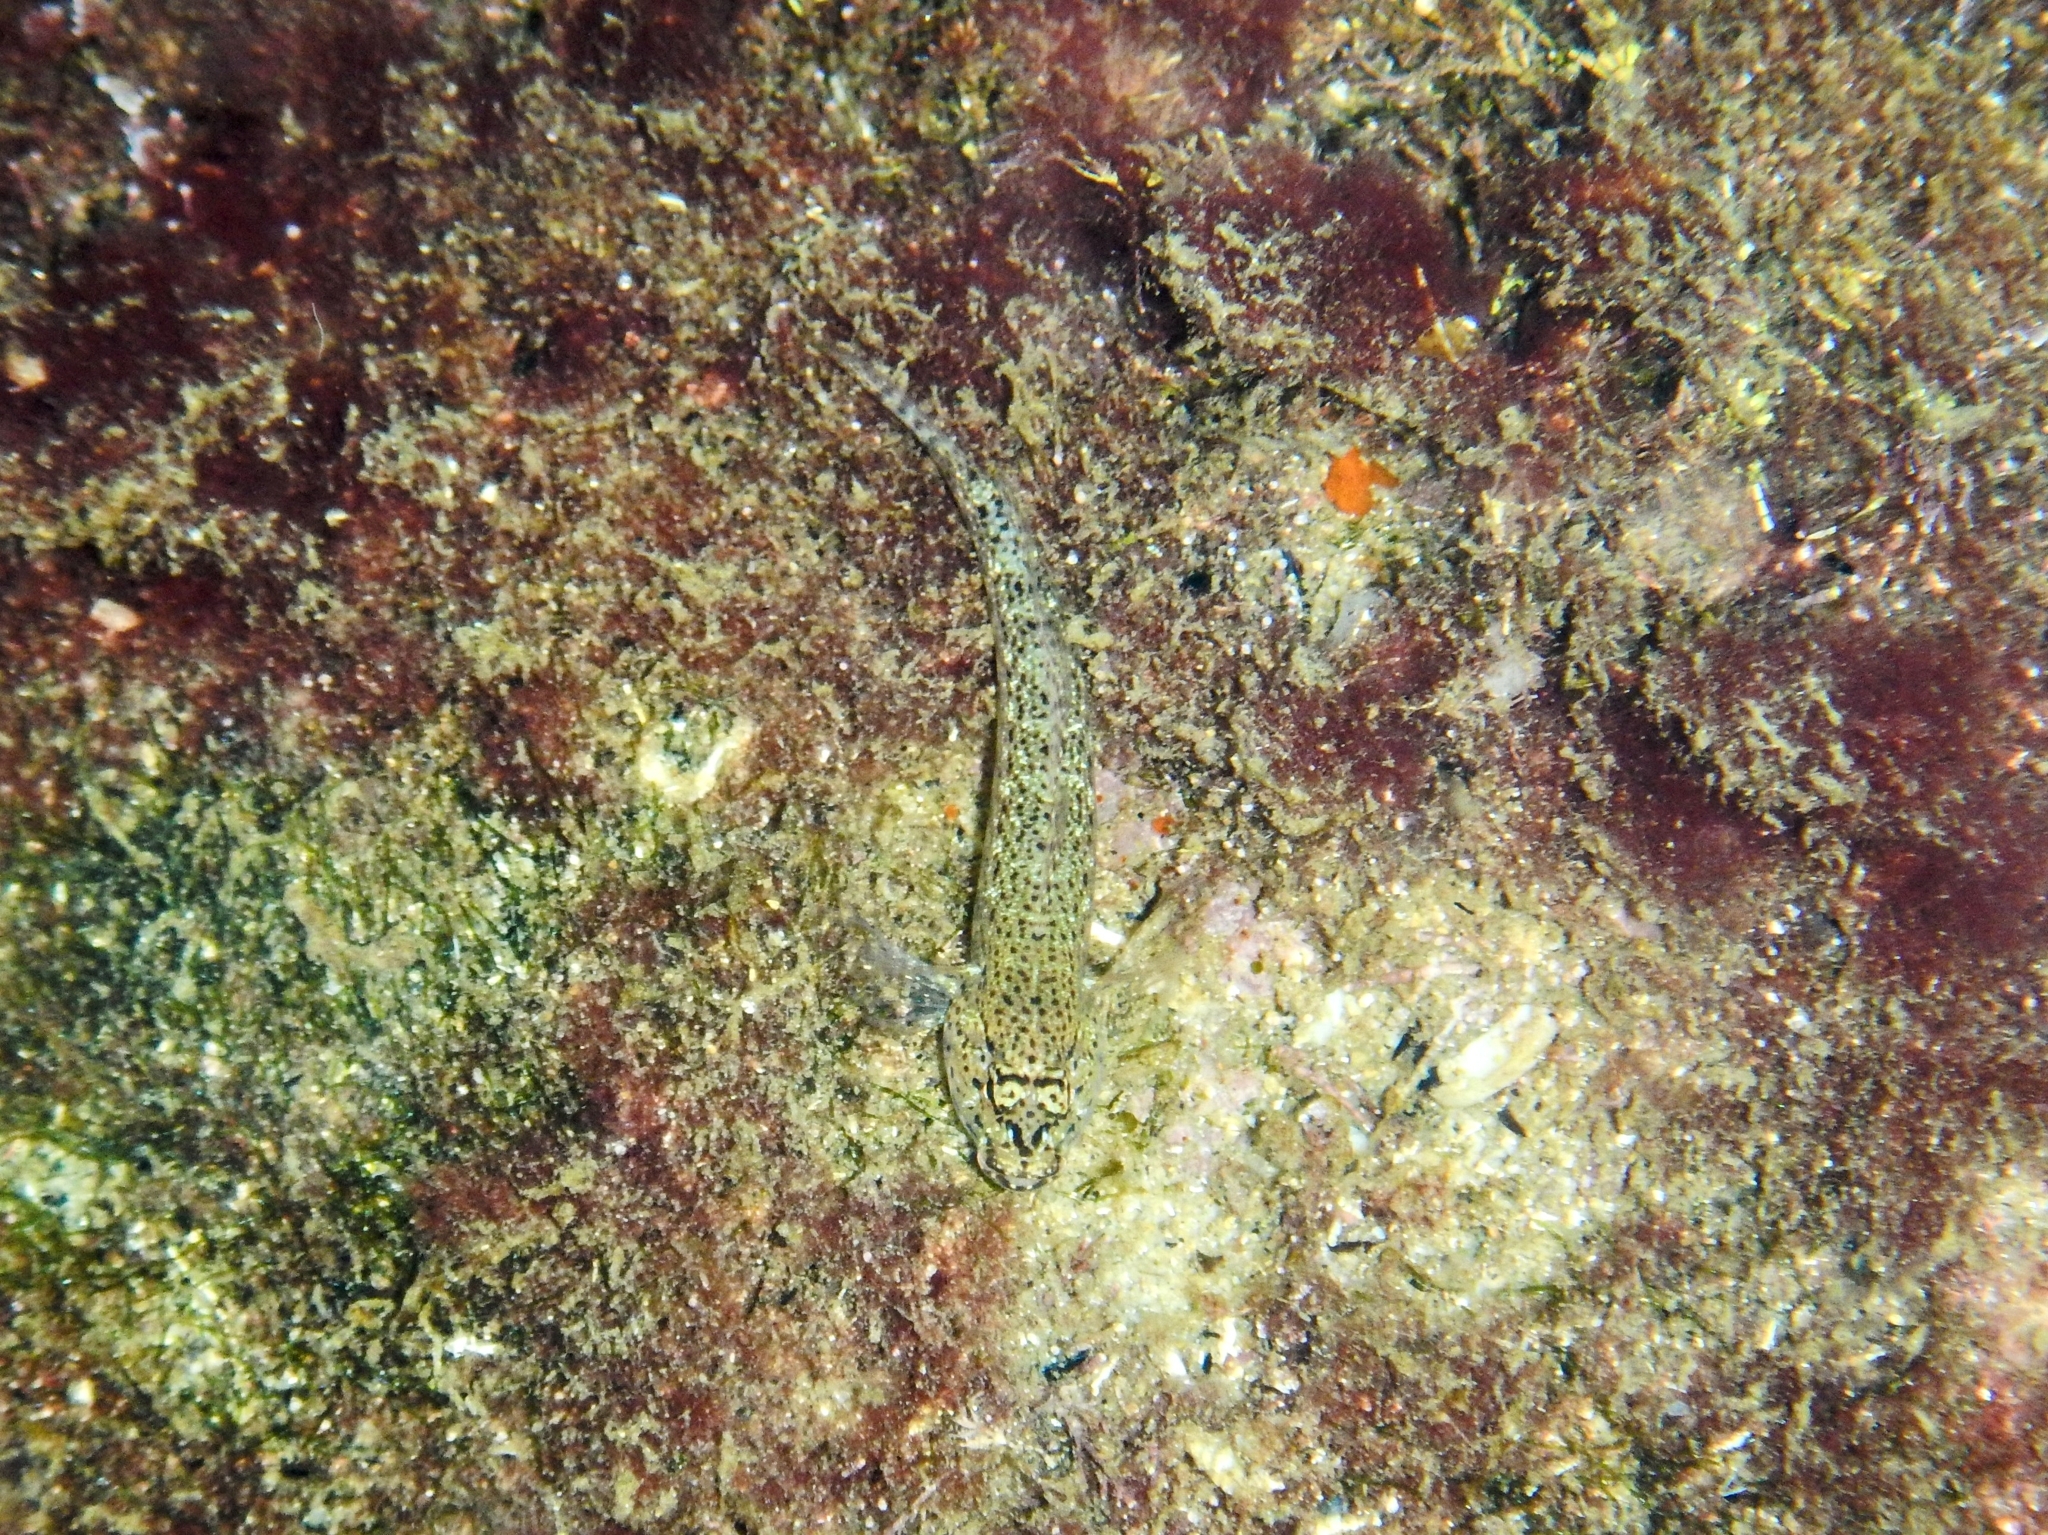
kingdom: Animalia
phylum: Chordata
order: Perciformes
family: Gobiidae
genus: Gobius
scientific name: Gobius incognitus
